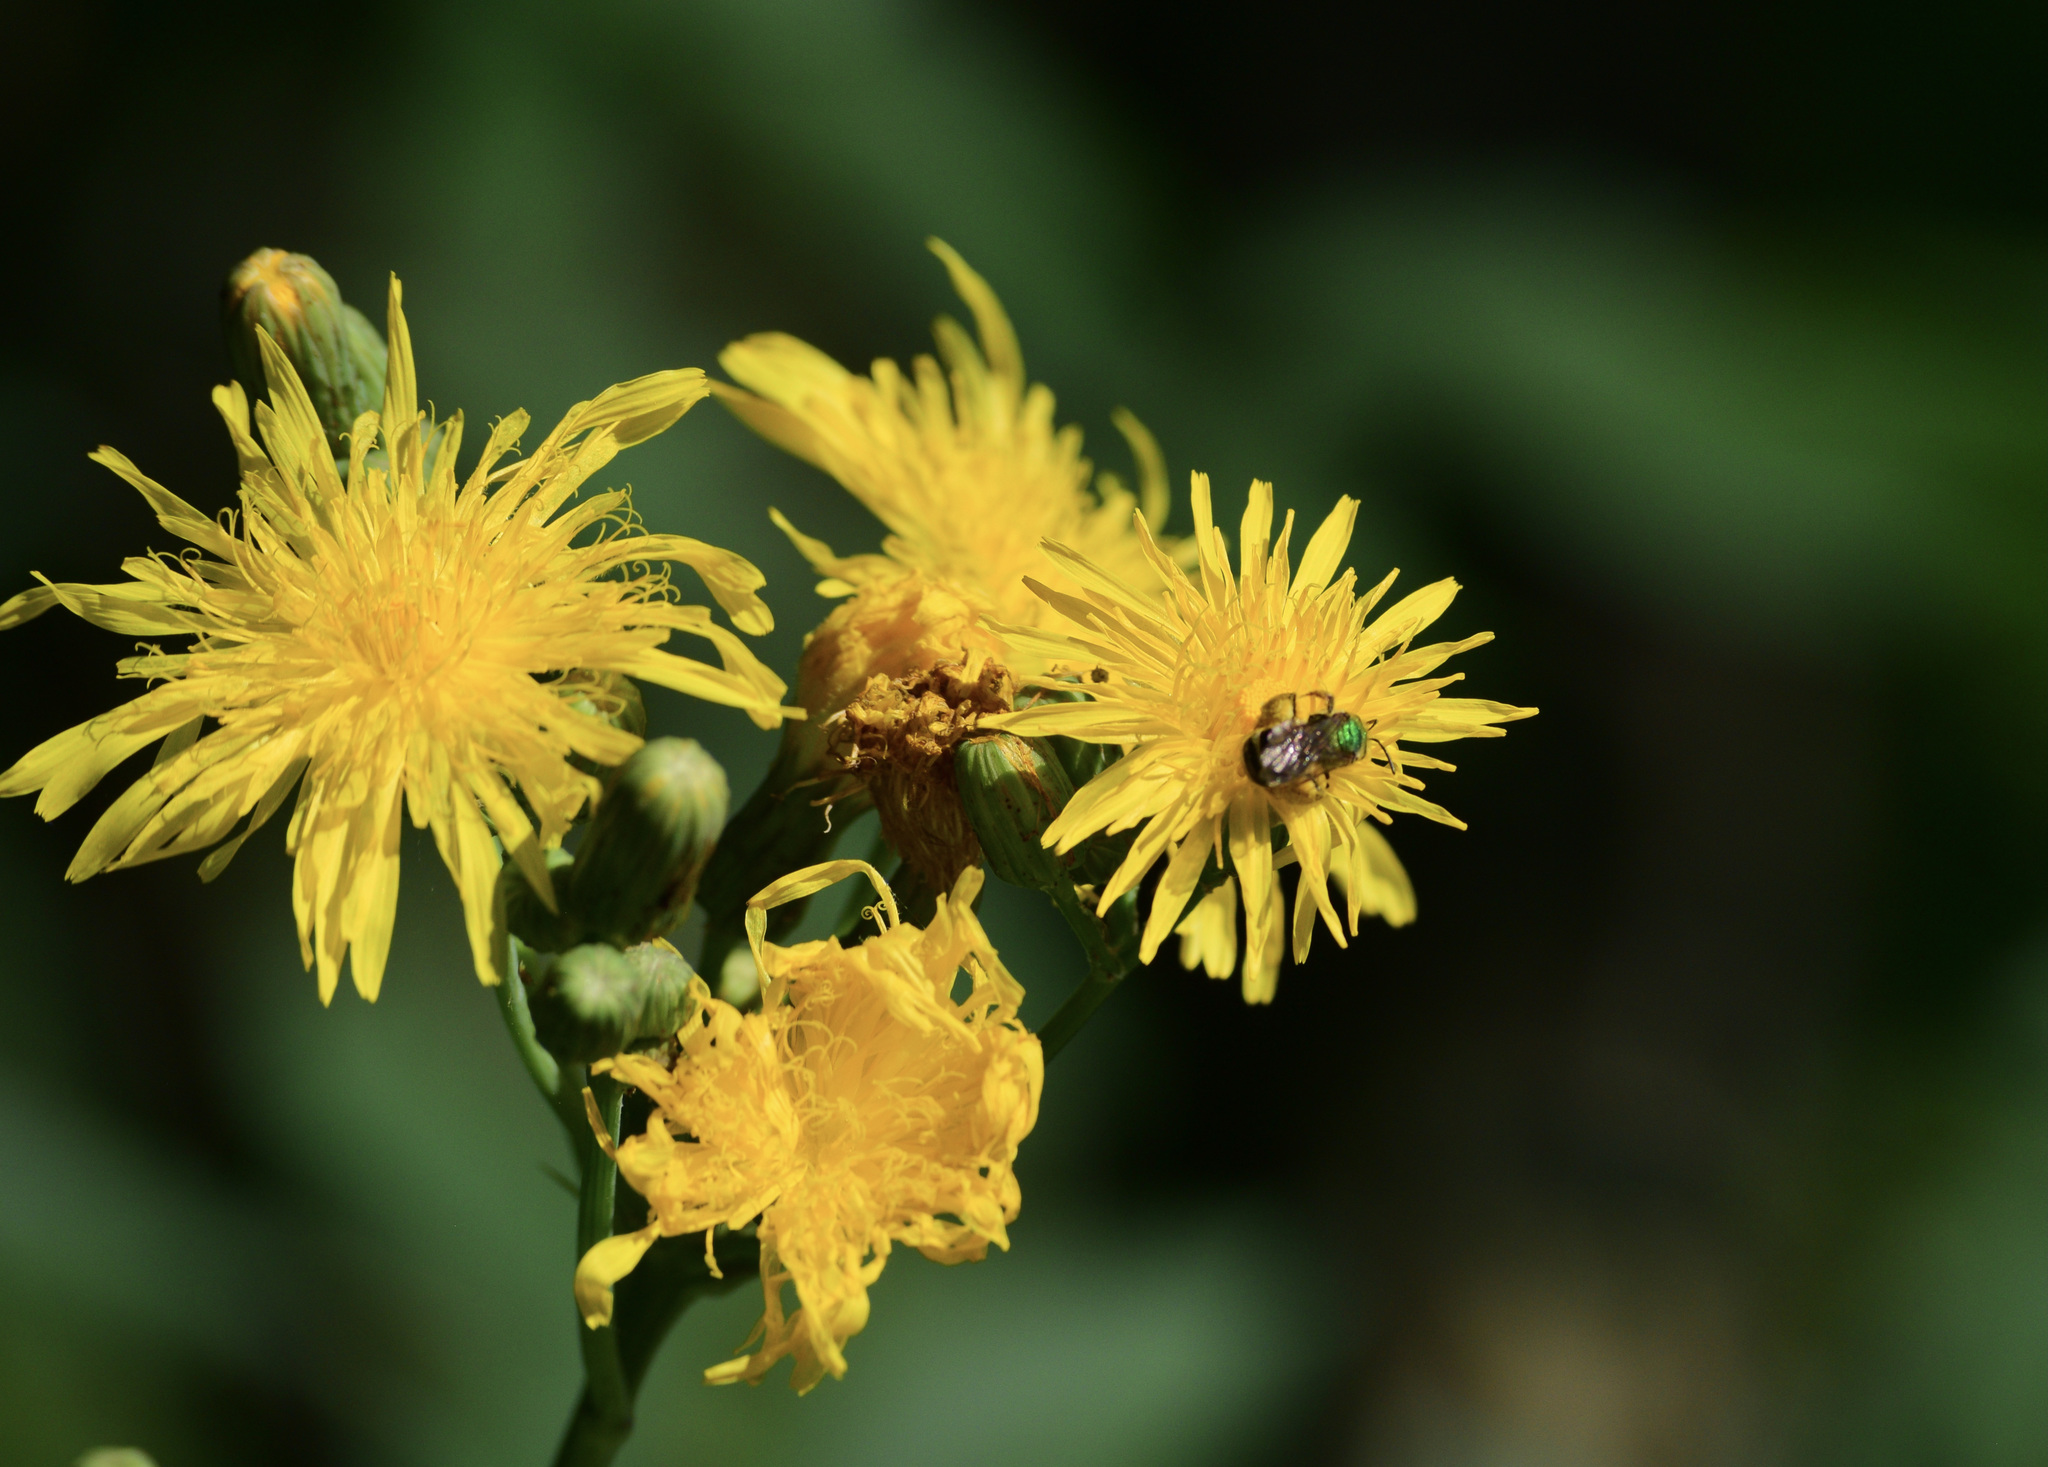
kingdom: Animalia
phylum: Arthropoda
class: Insecta
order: Hymenoptera
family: Halictidae
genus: Agapostemon
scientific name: Agapostemon virescens
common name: Bicolored striped sweat bee
